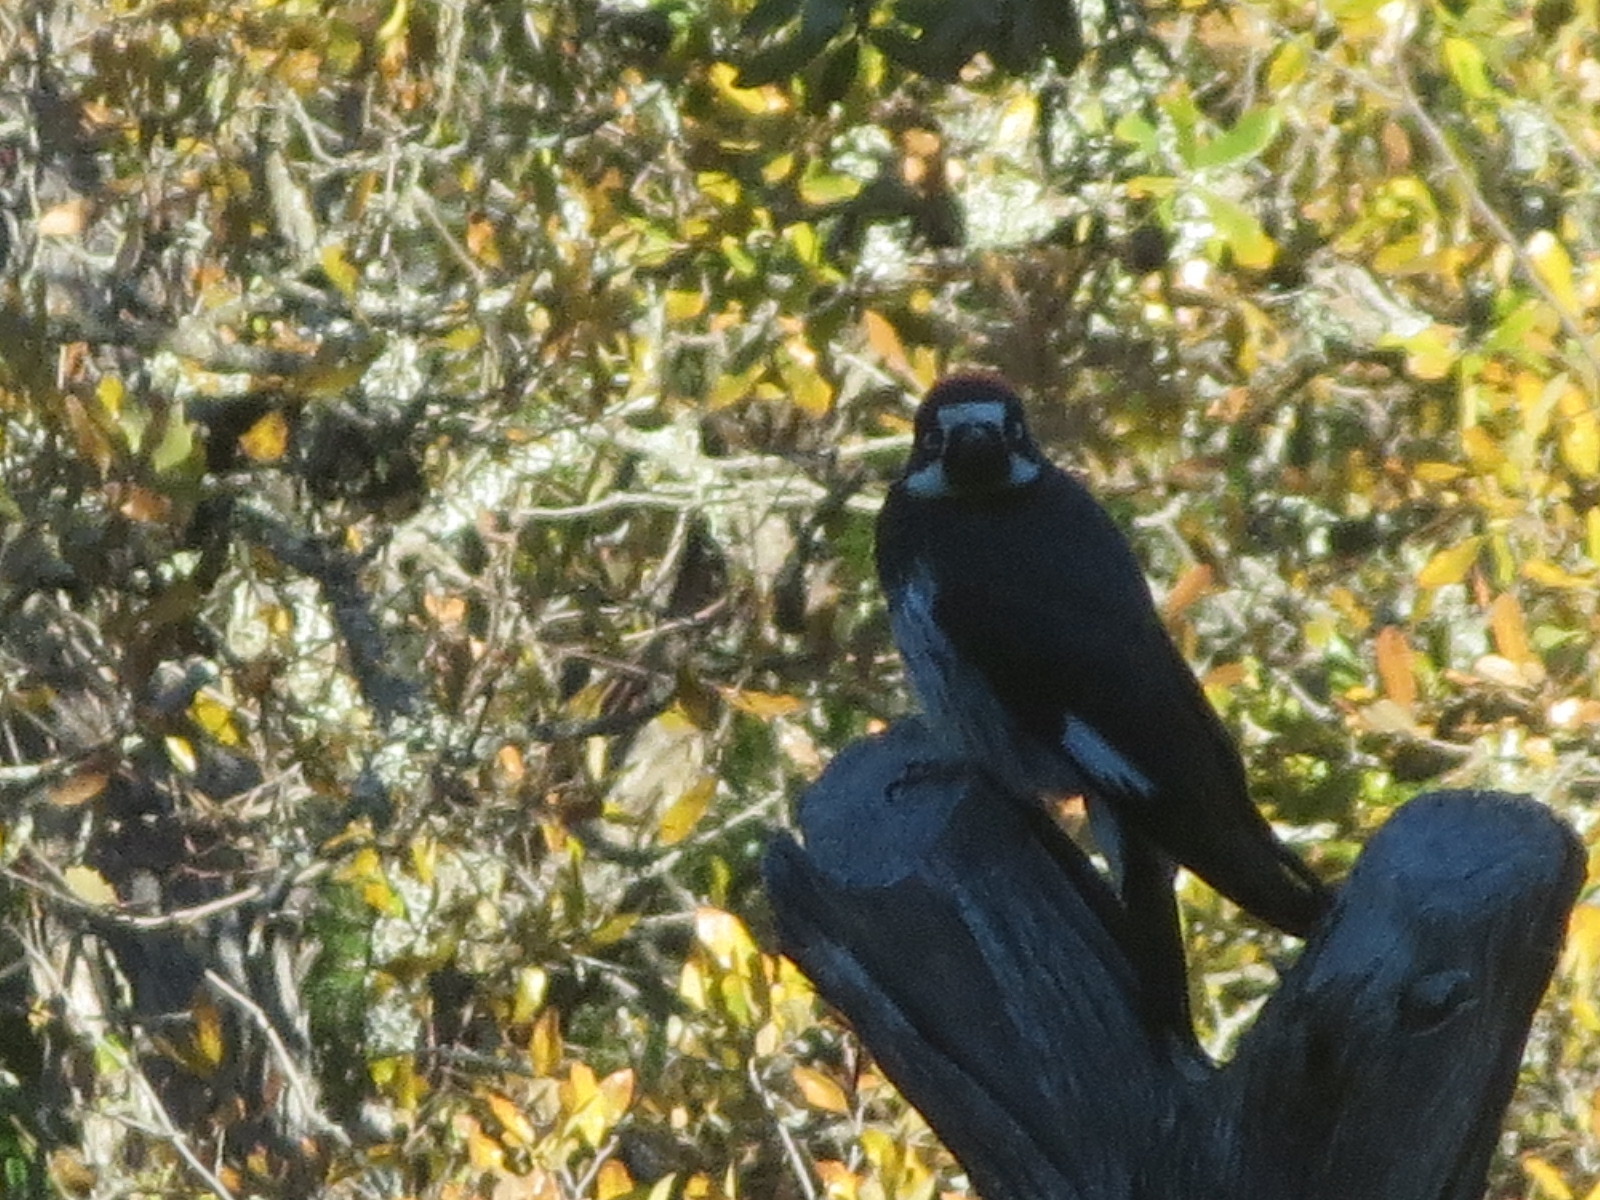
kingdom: Animalia
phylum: Chordata
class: Aves
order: Piciformes
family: Picidae
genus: Melanerpes
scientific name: Melanerpes formicivorus
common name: Acorn woodpecker
